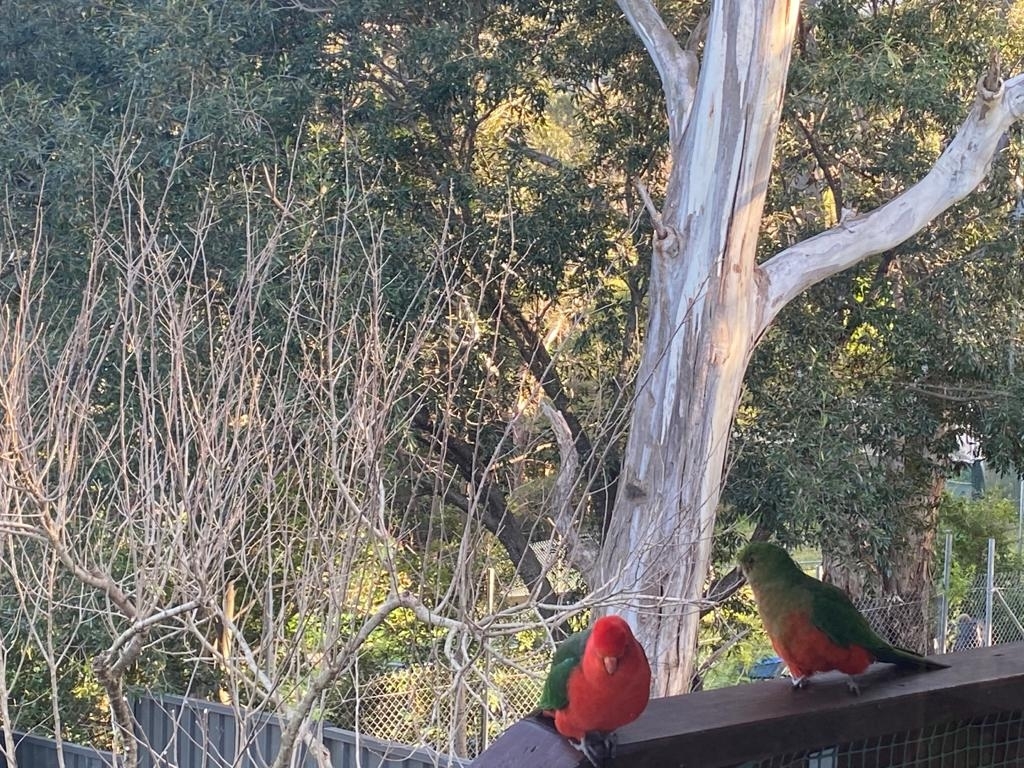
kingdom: Animalia
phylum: Chordata
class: Aves
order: Psittaciformes
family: Psittacidae
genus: Alisterus
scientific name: Alisterus scapularis
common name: Australian king parrot
